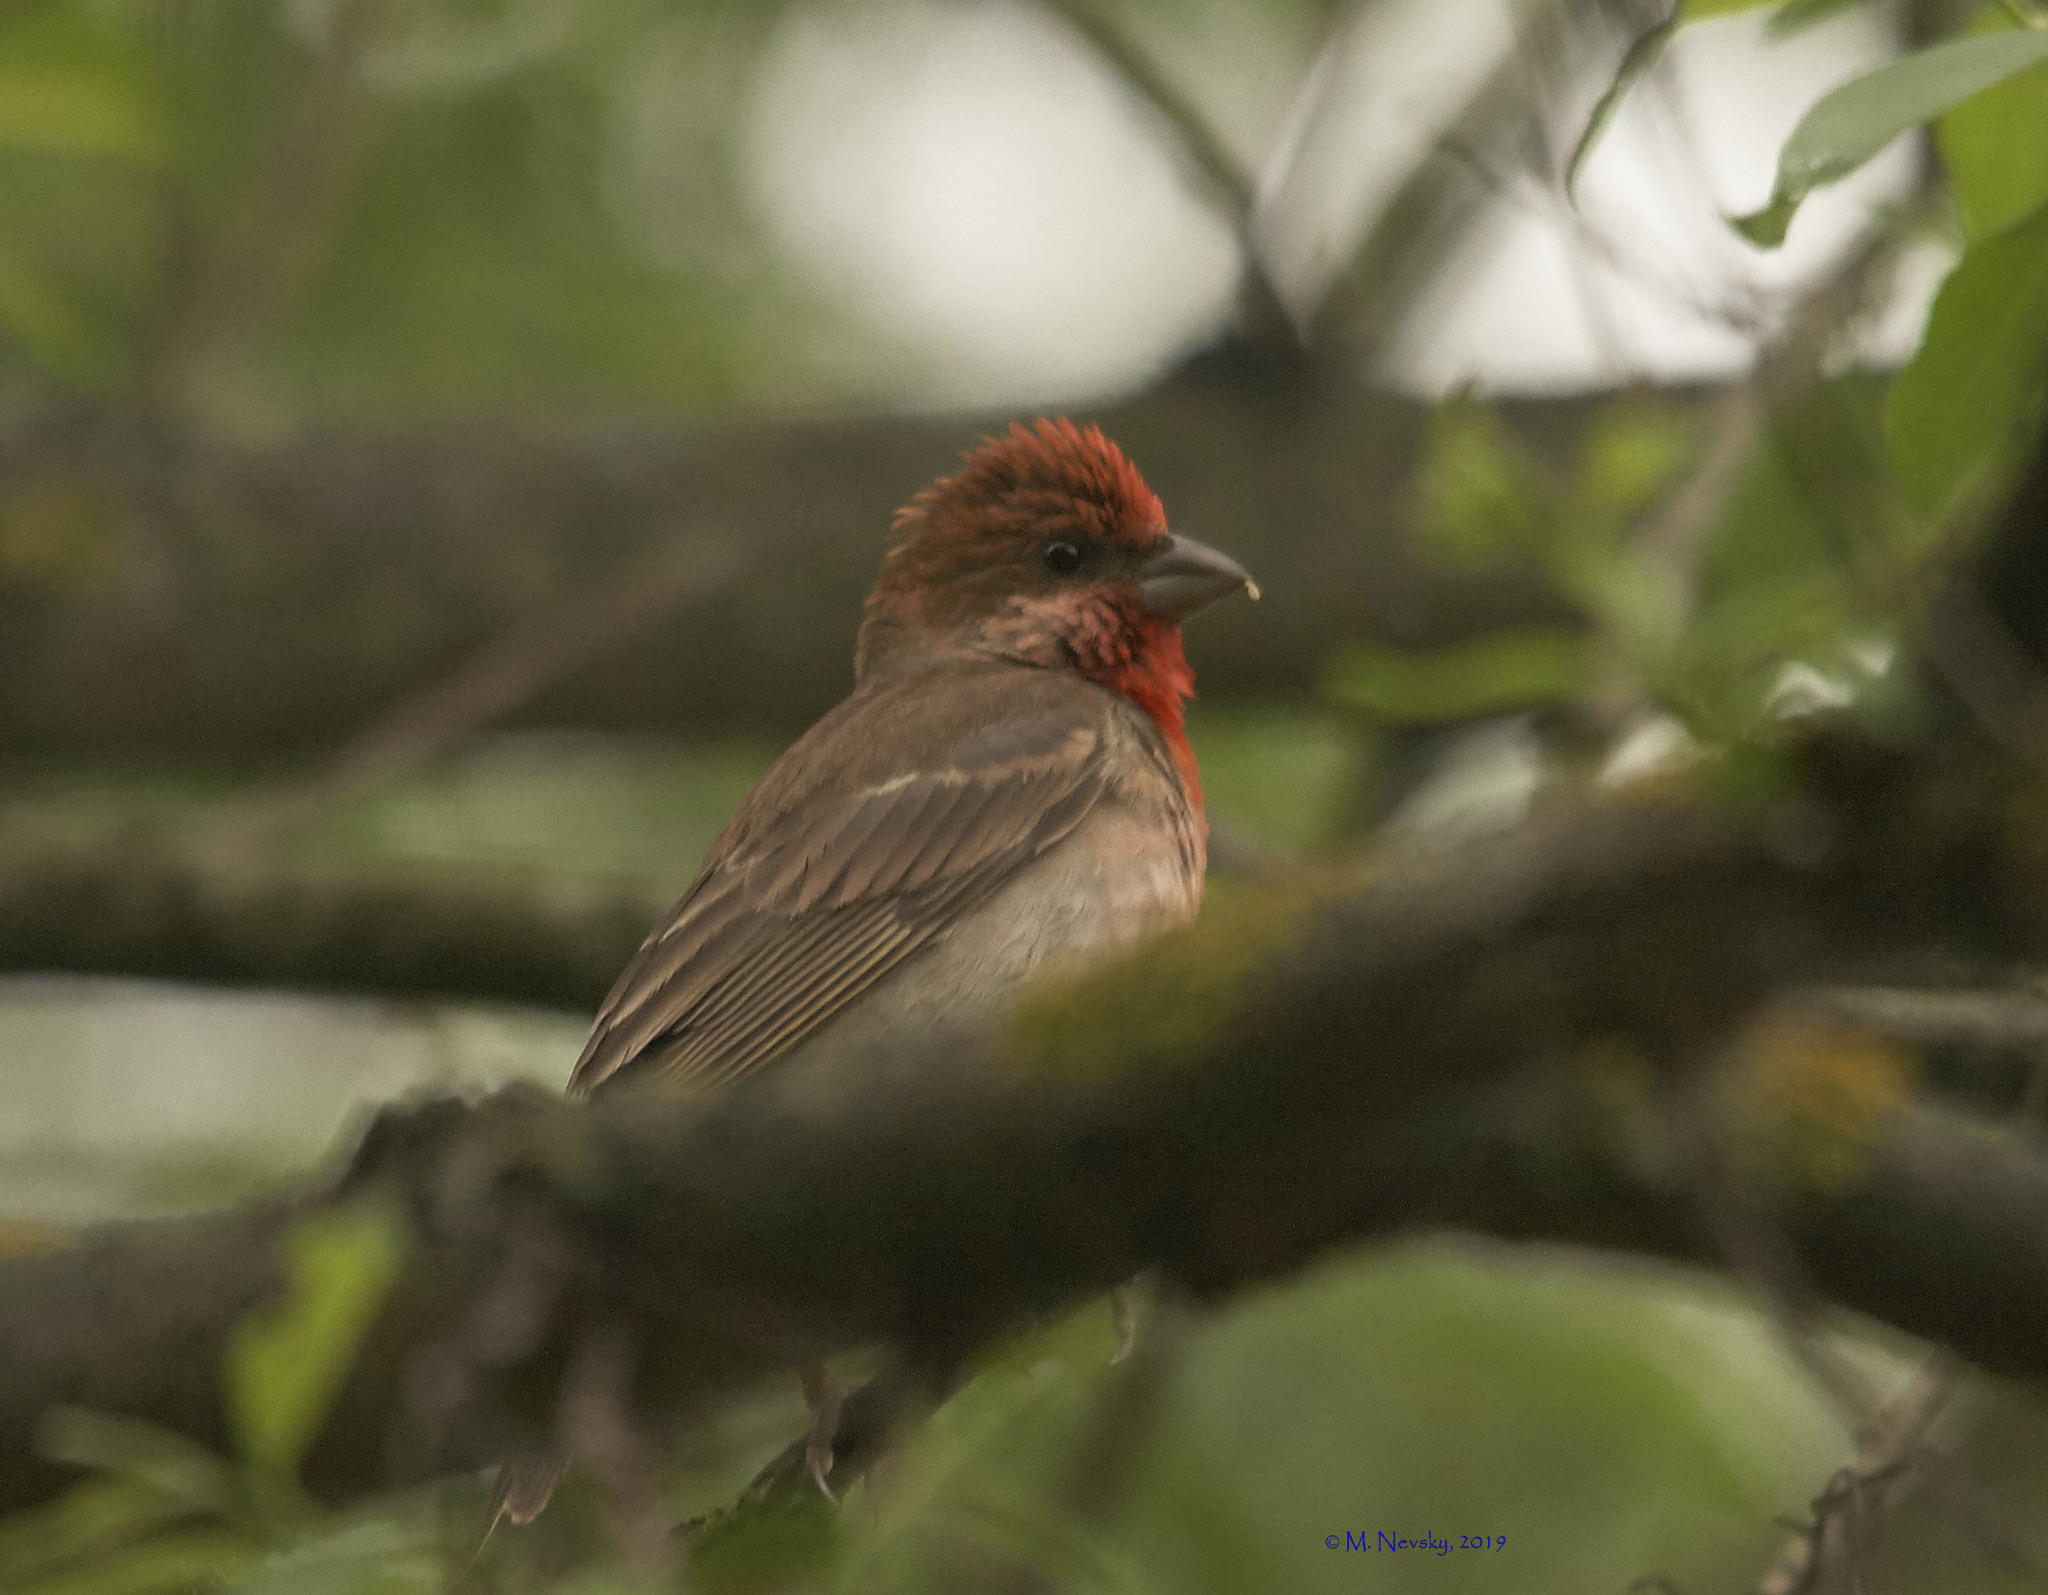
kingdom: Animalia
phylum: Chordata
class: Aves
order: Passeriformes
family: Fringillidae
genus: Carpodacus
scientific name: Carpodacus erythrinus
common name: Common rosefinch
